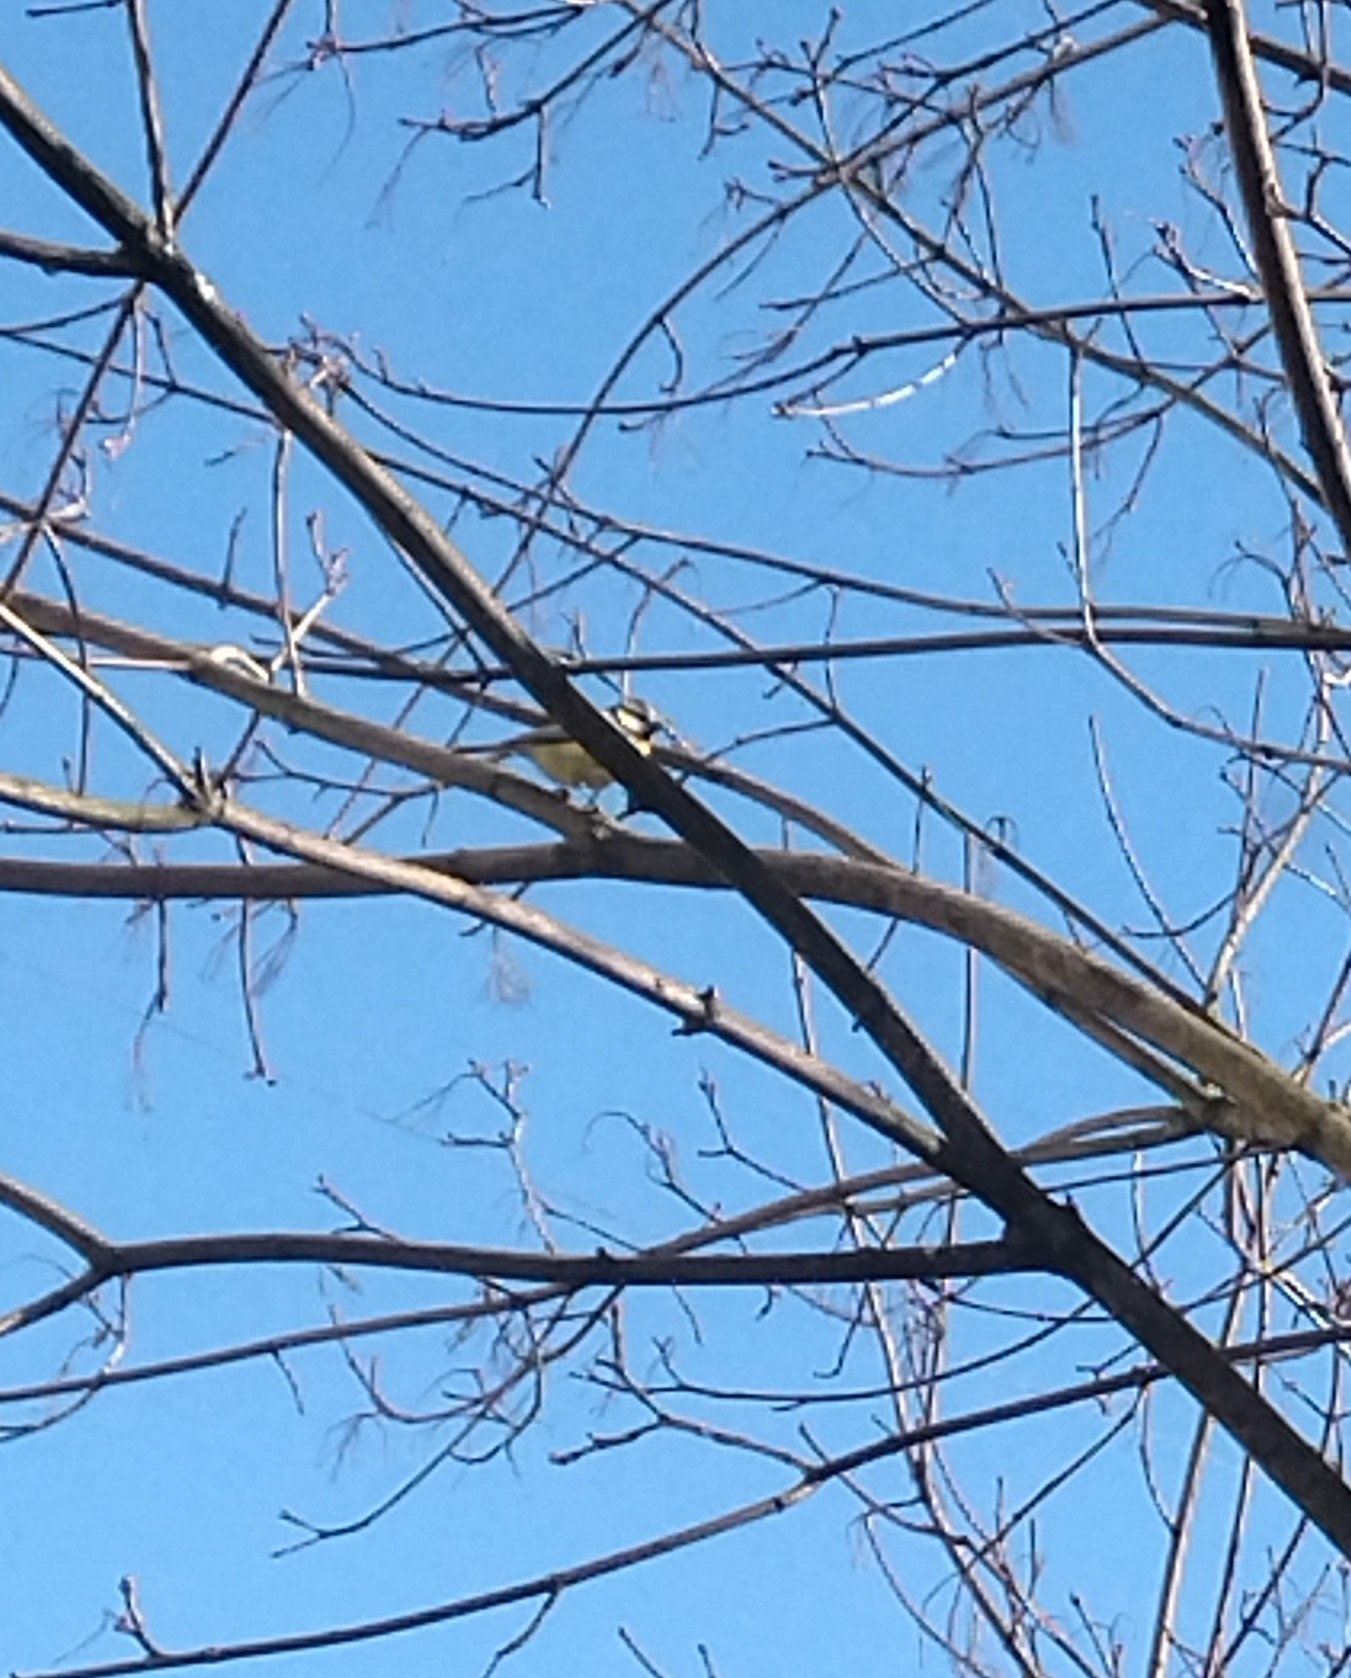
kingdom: Animalia
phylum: Chordata
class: Aves
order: Passeriformes
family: Paridae
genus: Cyanistes
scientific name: Cyanistes caeruleus
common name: Eurasian blue tit
